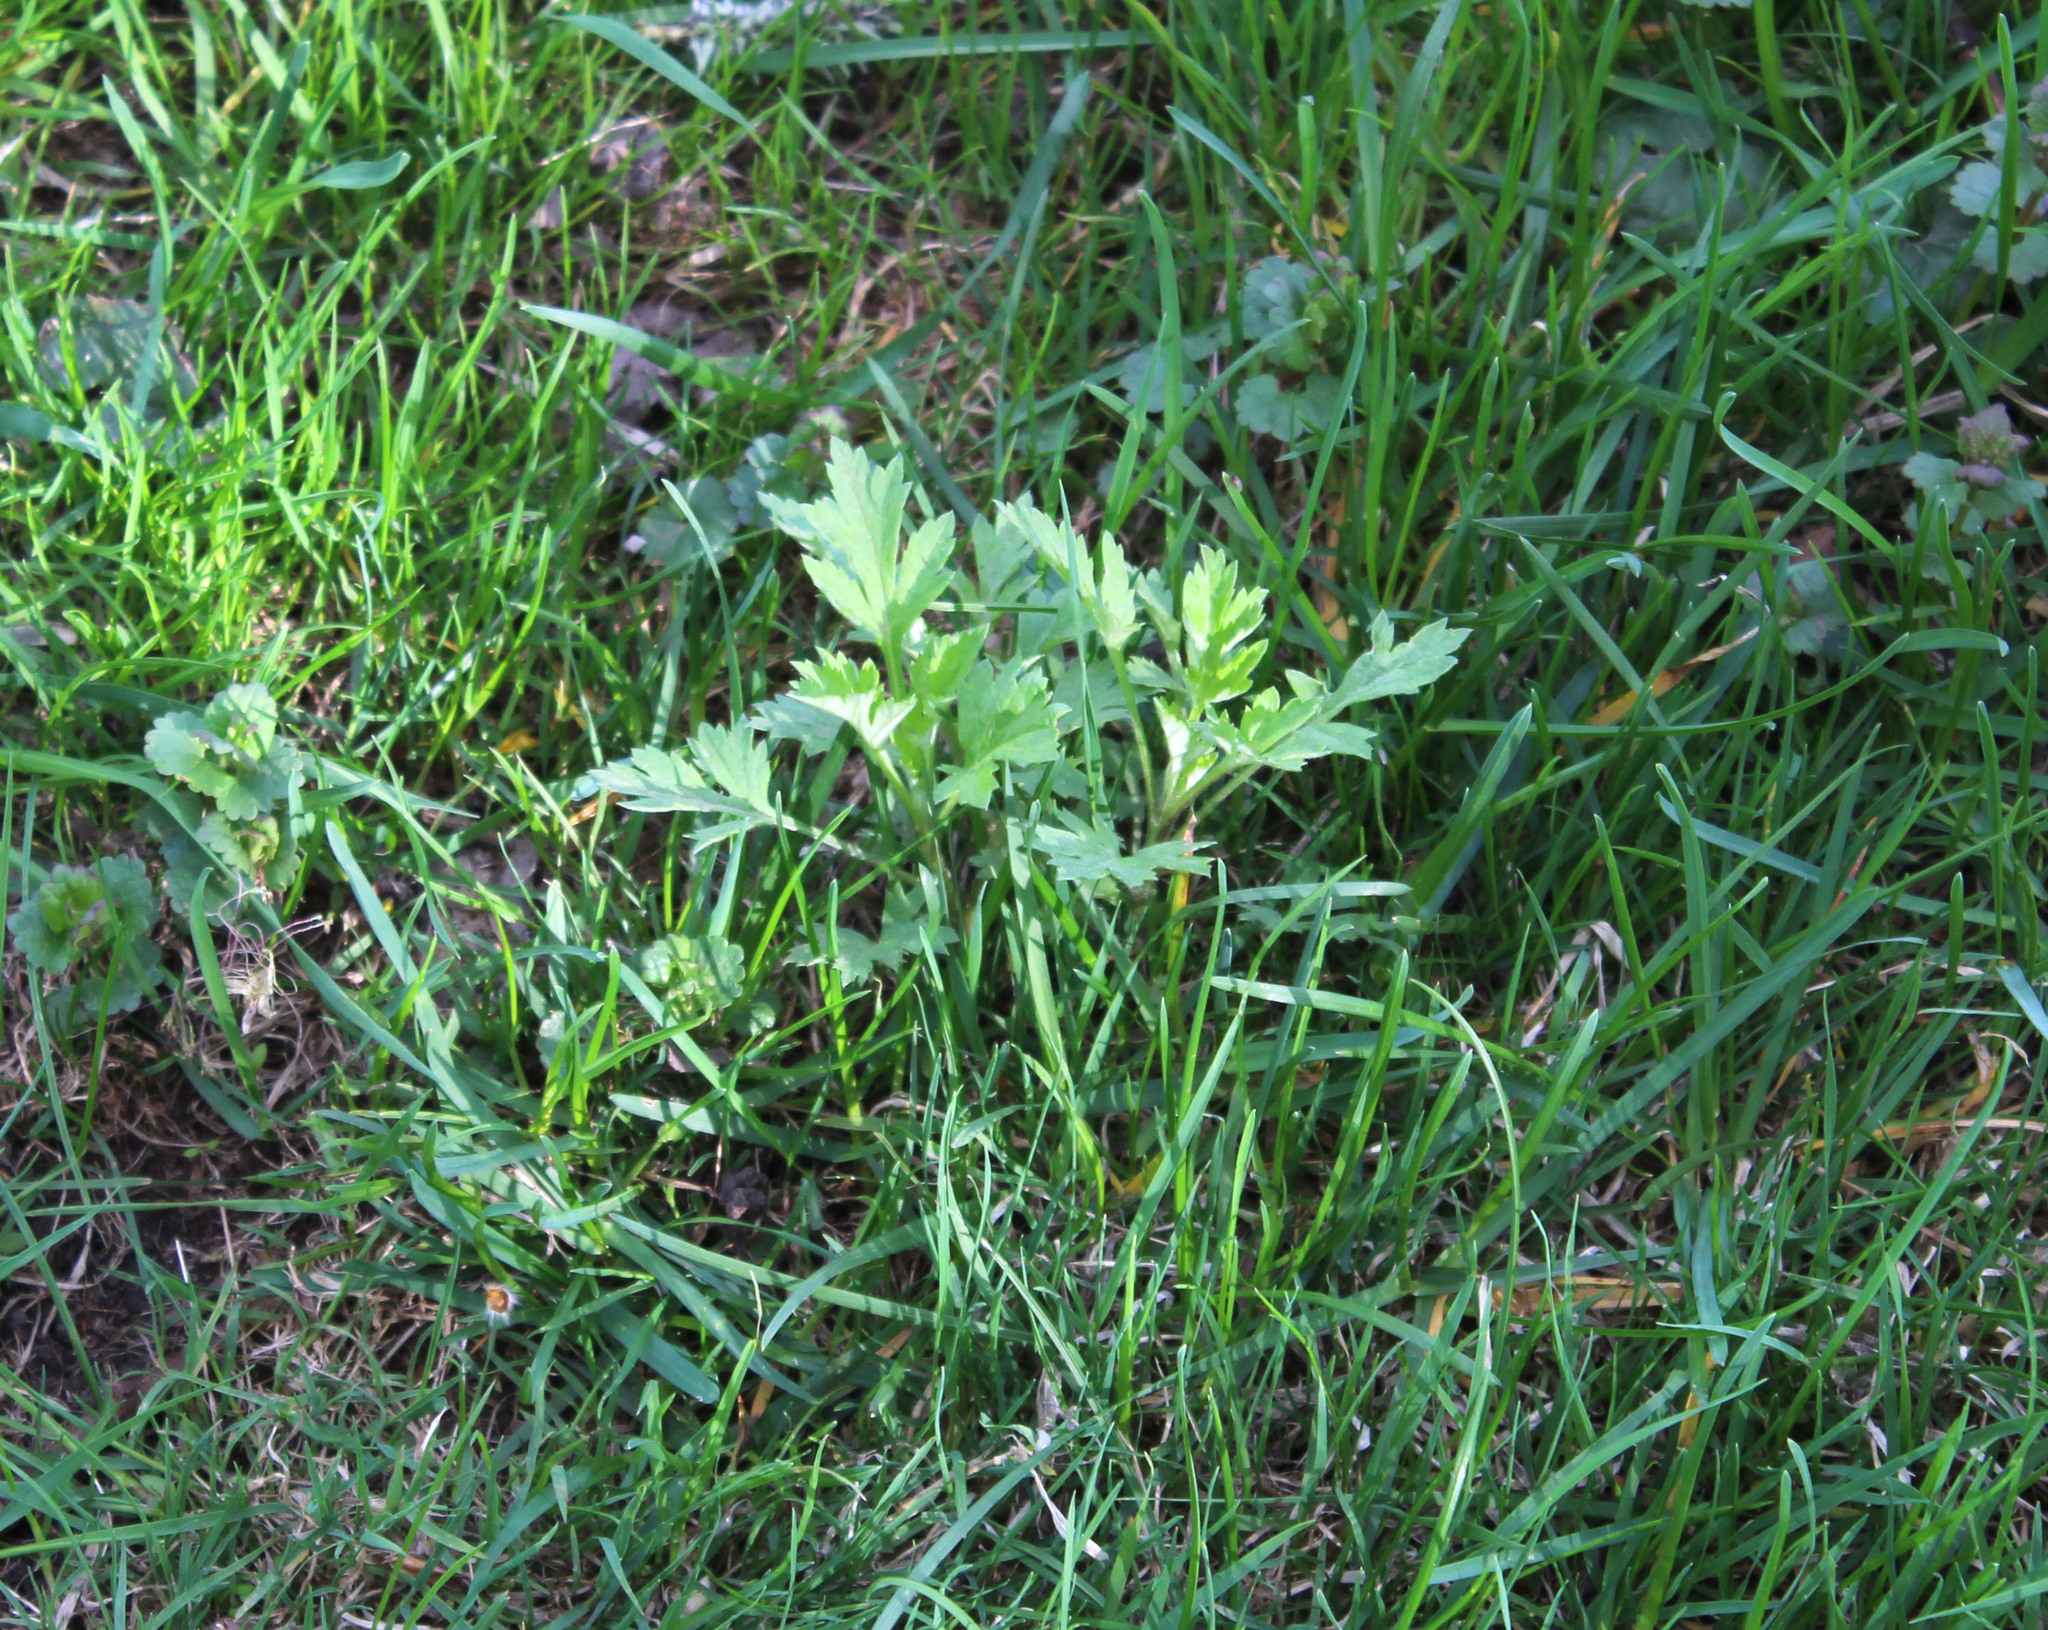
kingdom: Plantae
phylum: Tracheophyta
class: Magnoliopsida
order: Asterales
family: Asteraceae
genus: Artemisia
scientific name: Artemisia vulgaris
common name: Mugwort
